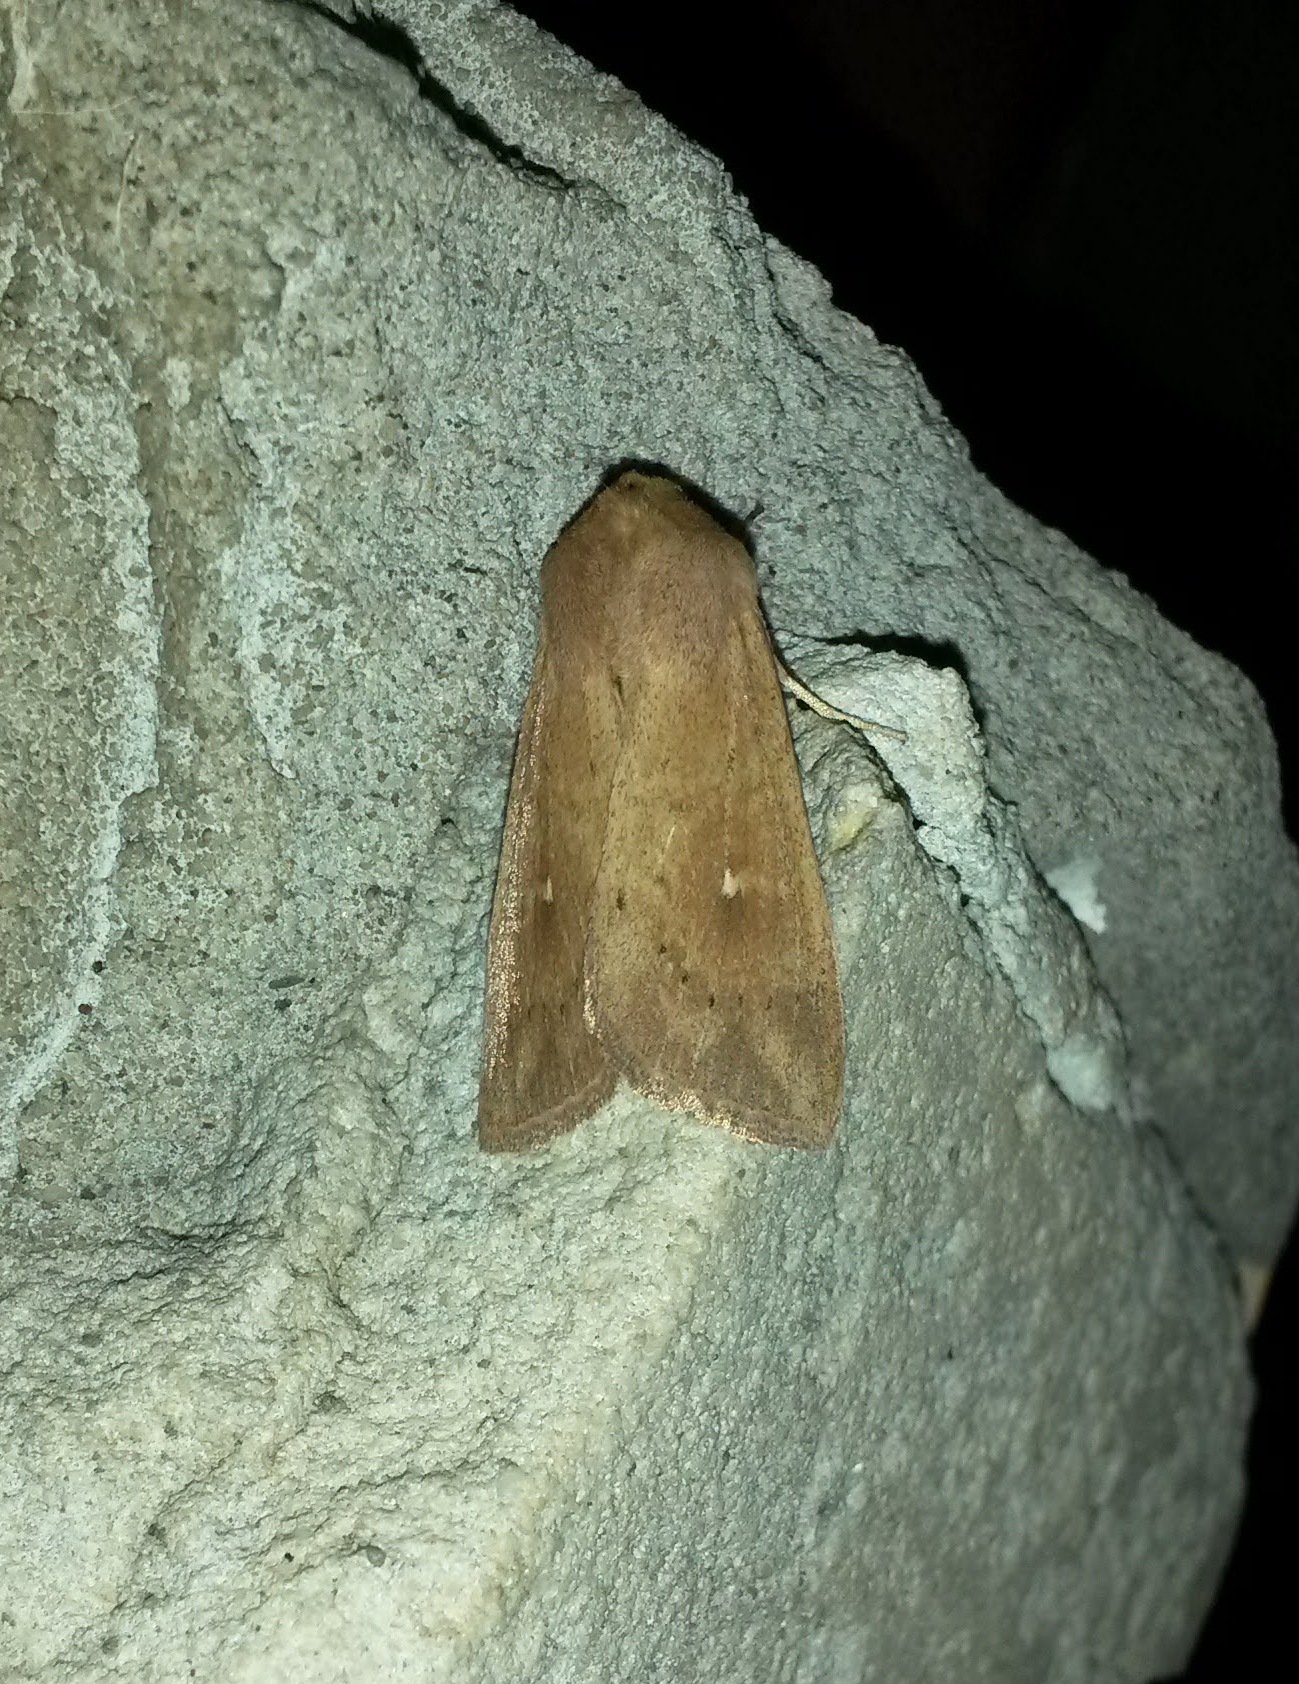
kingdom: Animalia
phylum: Arthropoda
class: Insecta
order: Lepidoptera
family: Noctuidae
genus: Mythimna
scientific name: Mythimna ferrago
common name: Clay
